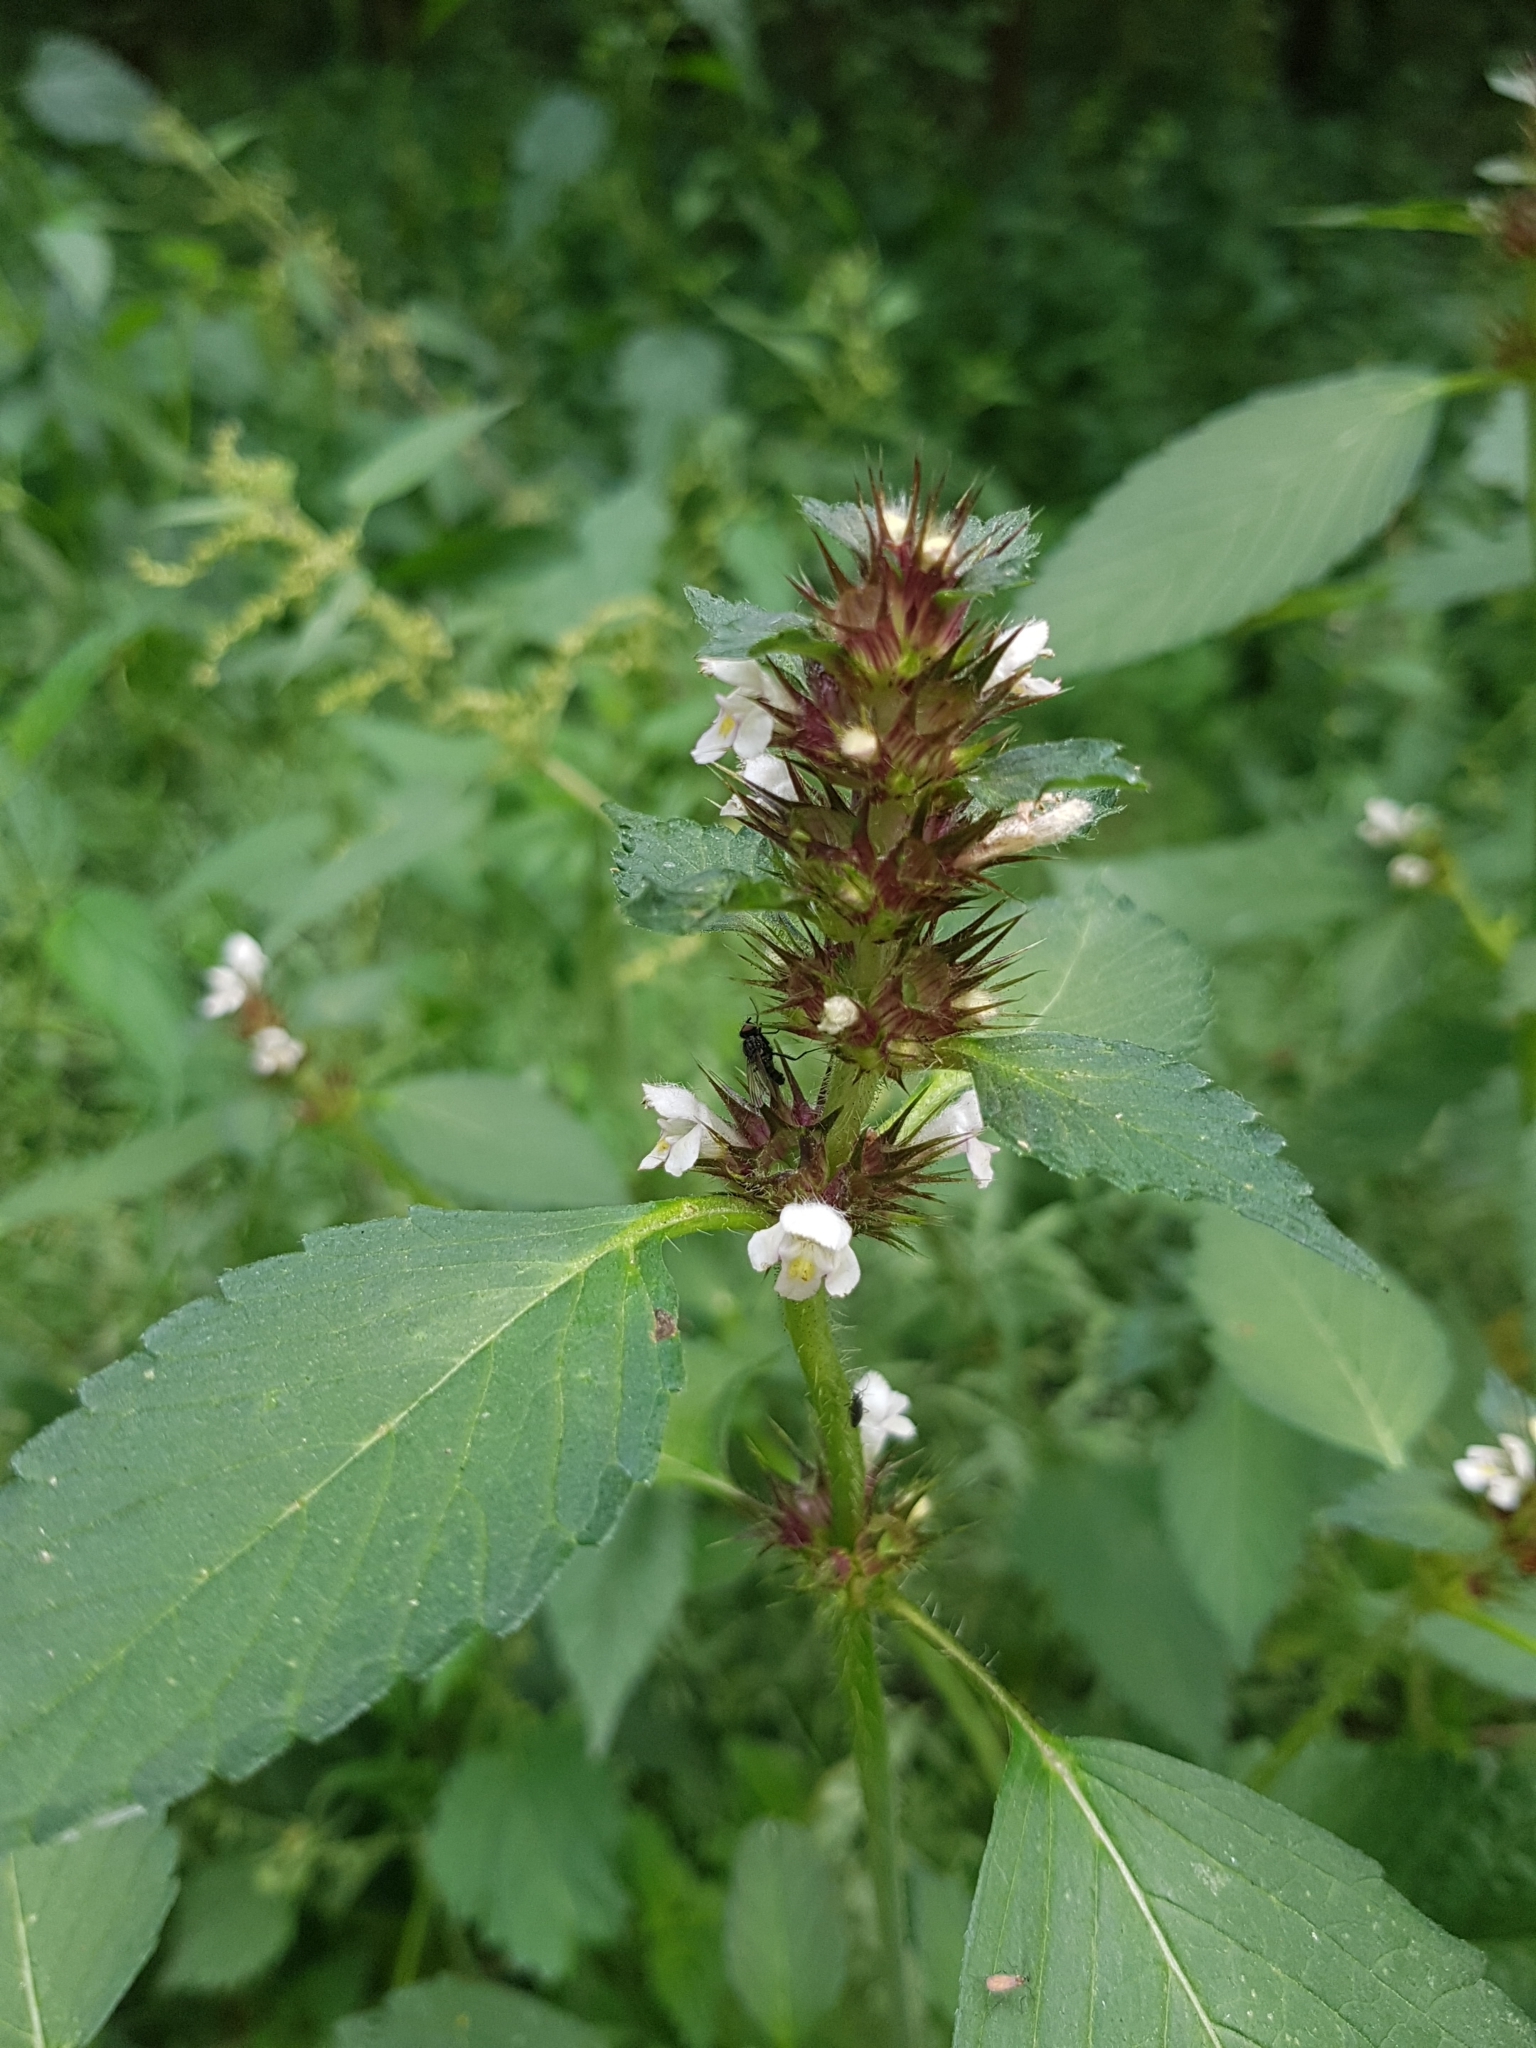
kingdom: Plantae
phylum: Tracheophyta
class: Magnoliopsida
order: Lamiales
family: Lamiaceae
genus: Galeopsis
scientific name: Galeopsis tetrahit
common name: Common hemp-nettle
